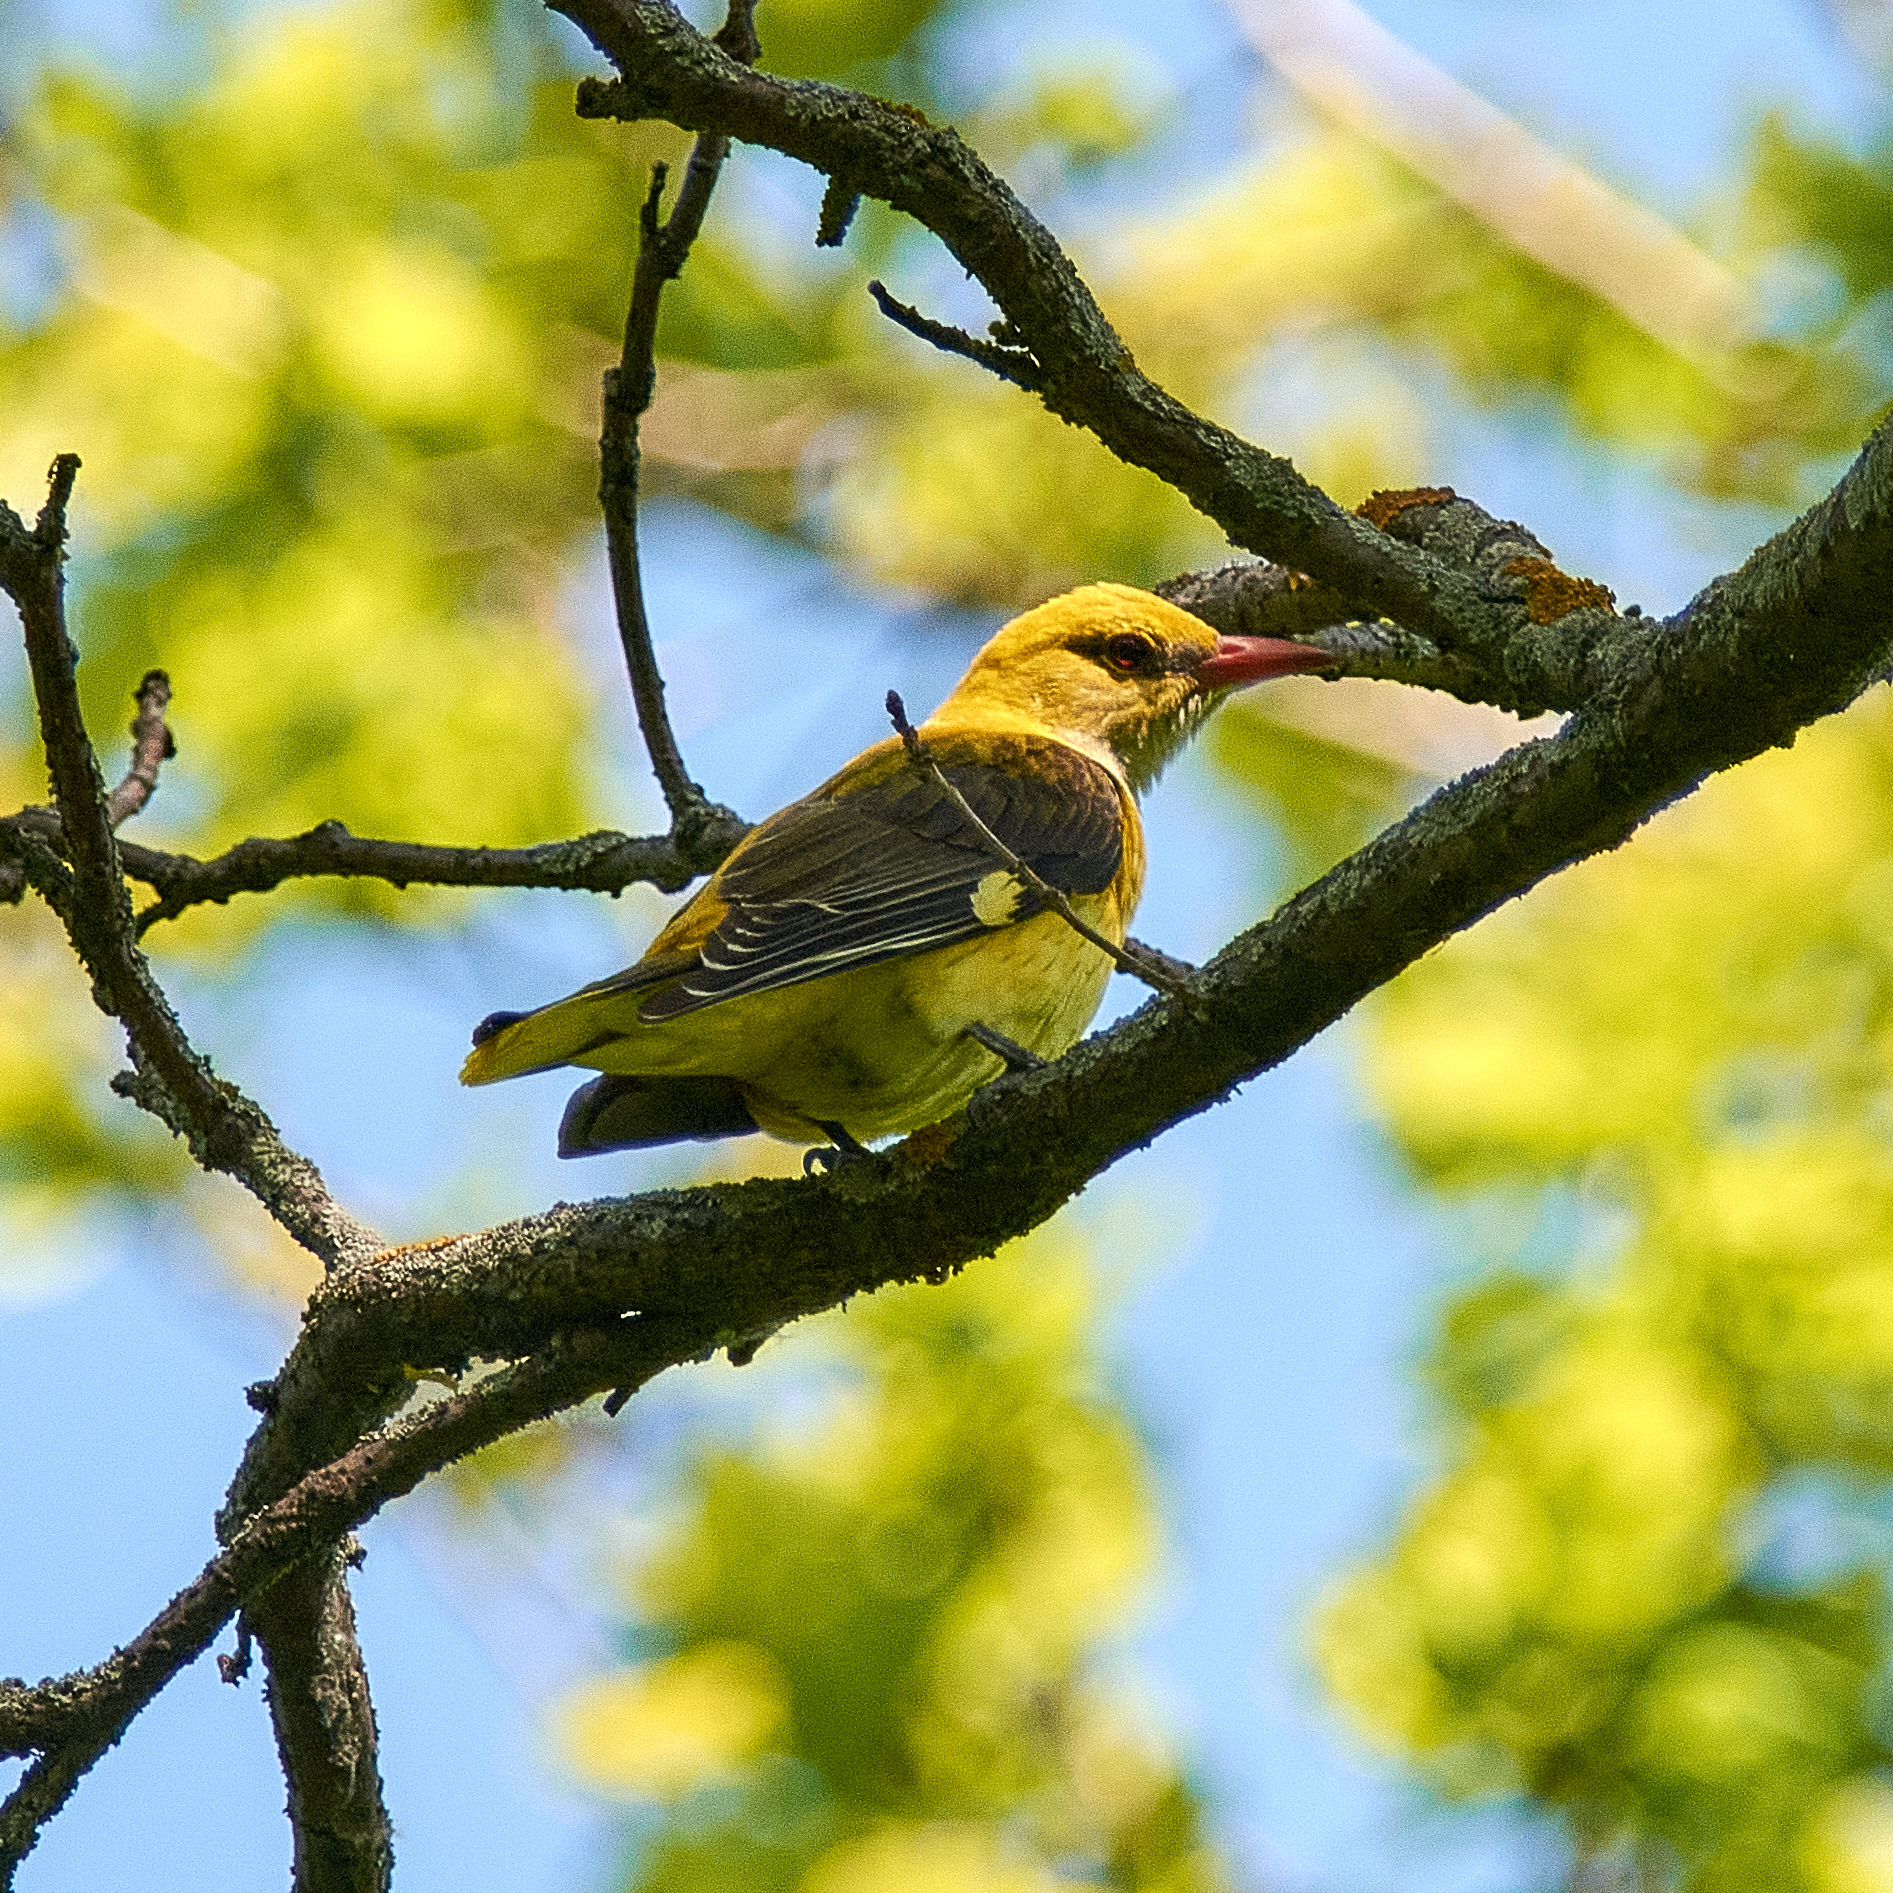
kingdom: Animalia
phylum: Chordata
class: Aves
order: Passeriformes
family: Oriolidae
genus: Oriolus
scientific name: Oriolus oriolus
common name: Eurasian golden oriole
